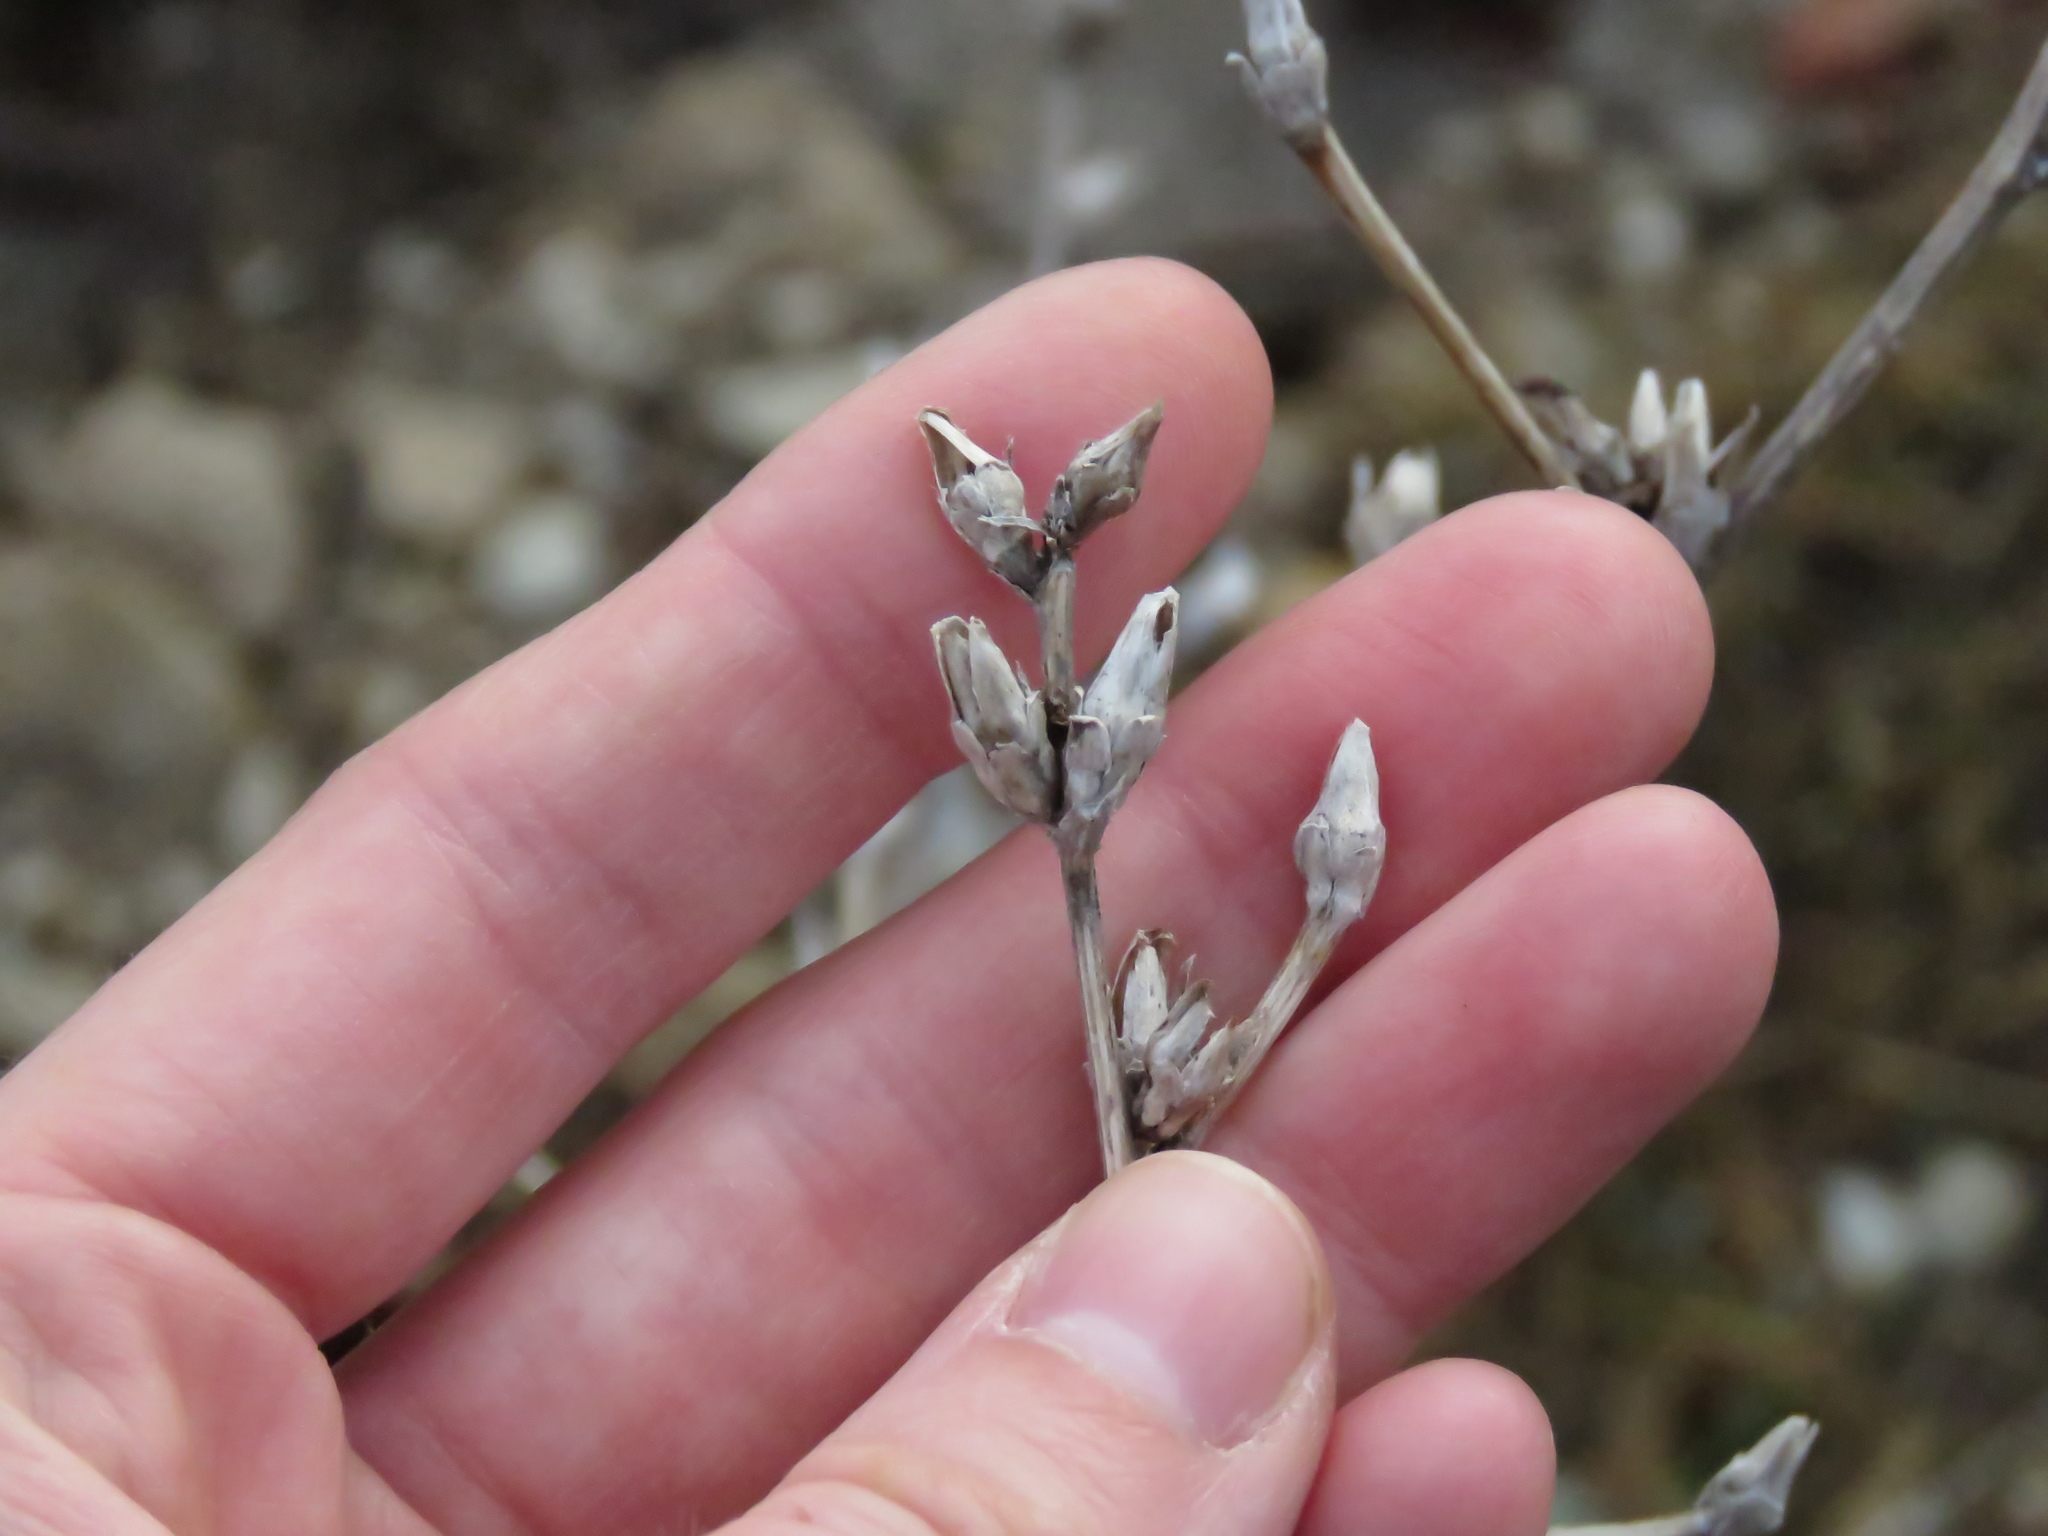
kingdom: Plantae
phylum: Tracheophyta
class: Magnoliopsida
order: Asterales
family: Asteraceae
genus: Cichorium
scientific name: Cichorium intybus
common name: Chicory
